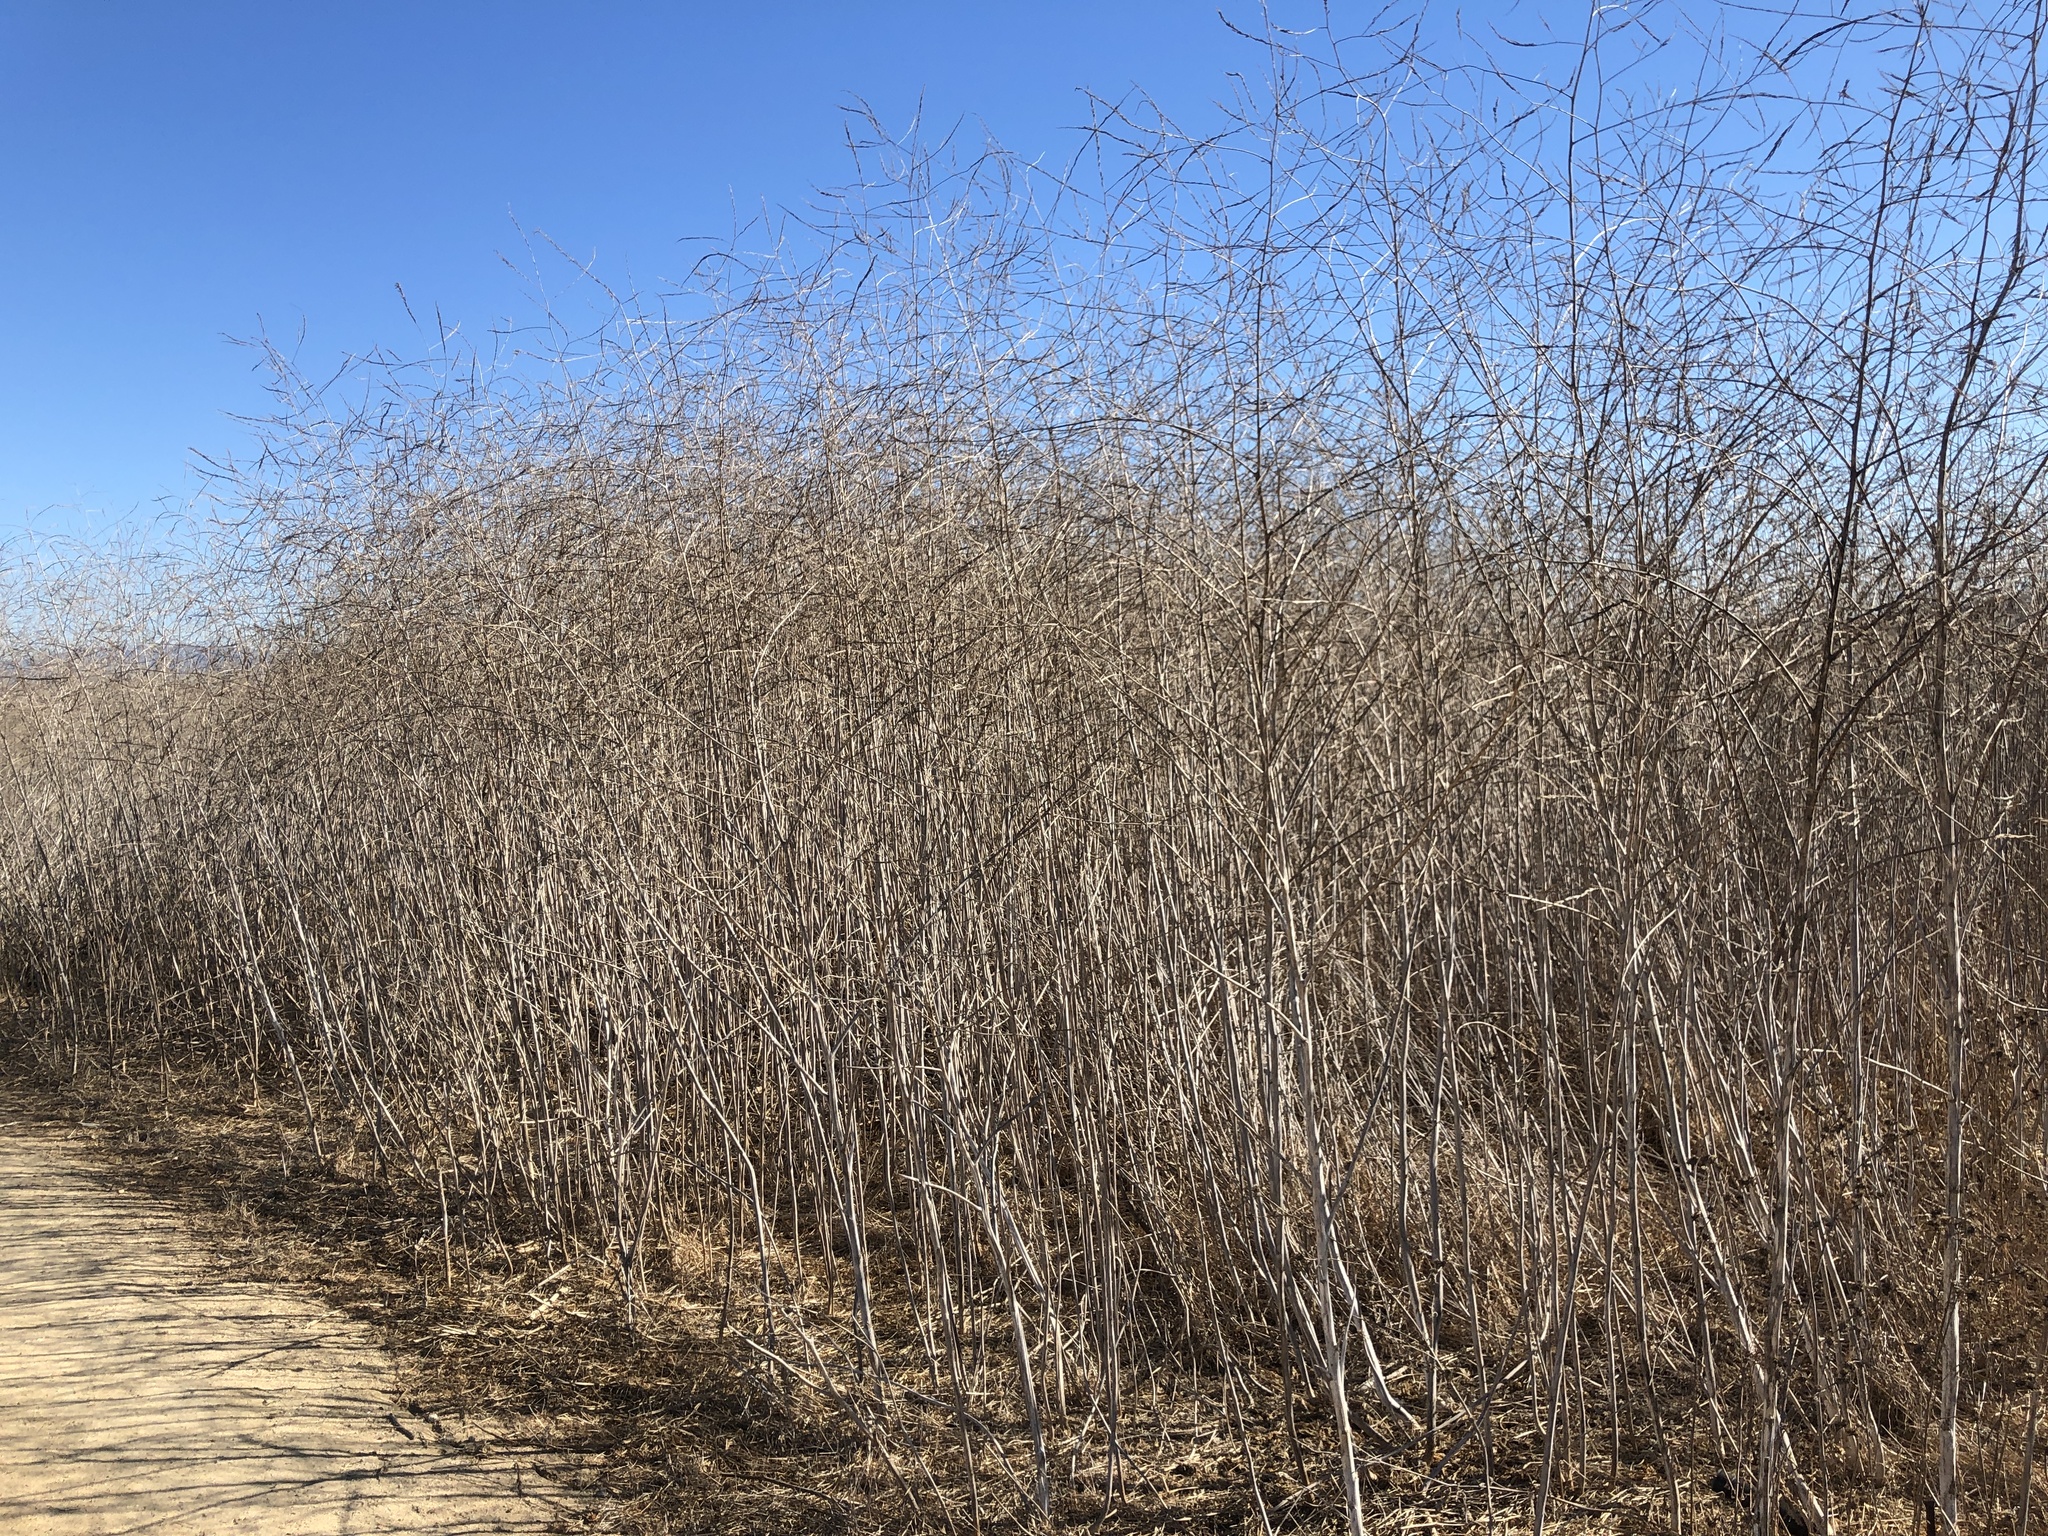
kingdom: Plantae
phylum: Tracheophyta
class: Magnoliopsida
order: Brassicales
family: Brassicaceae
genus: Brassica
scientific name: Brassica nigra
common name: Black mustard
